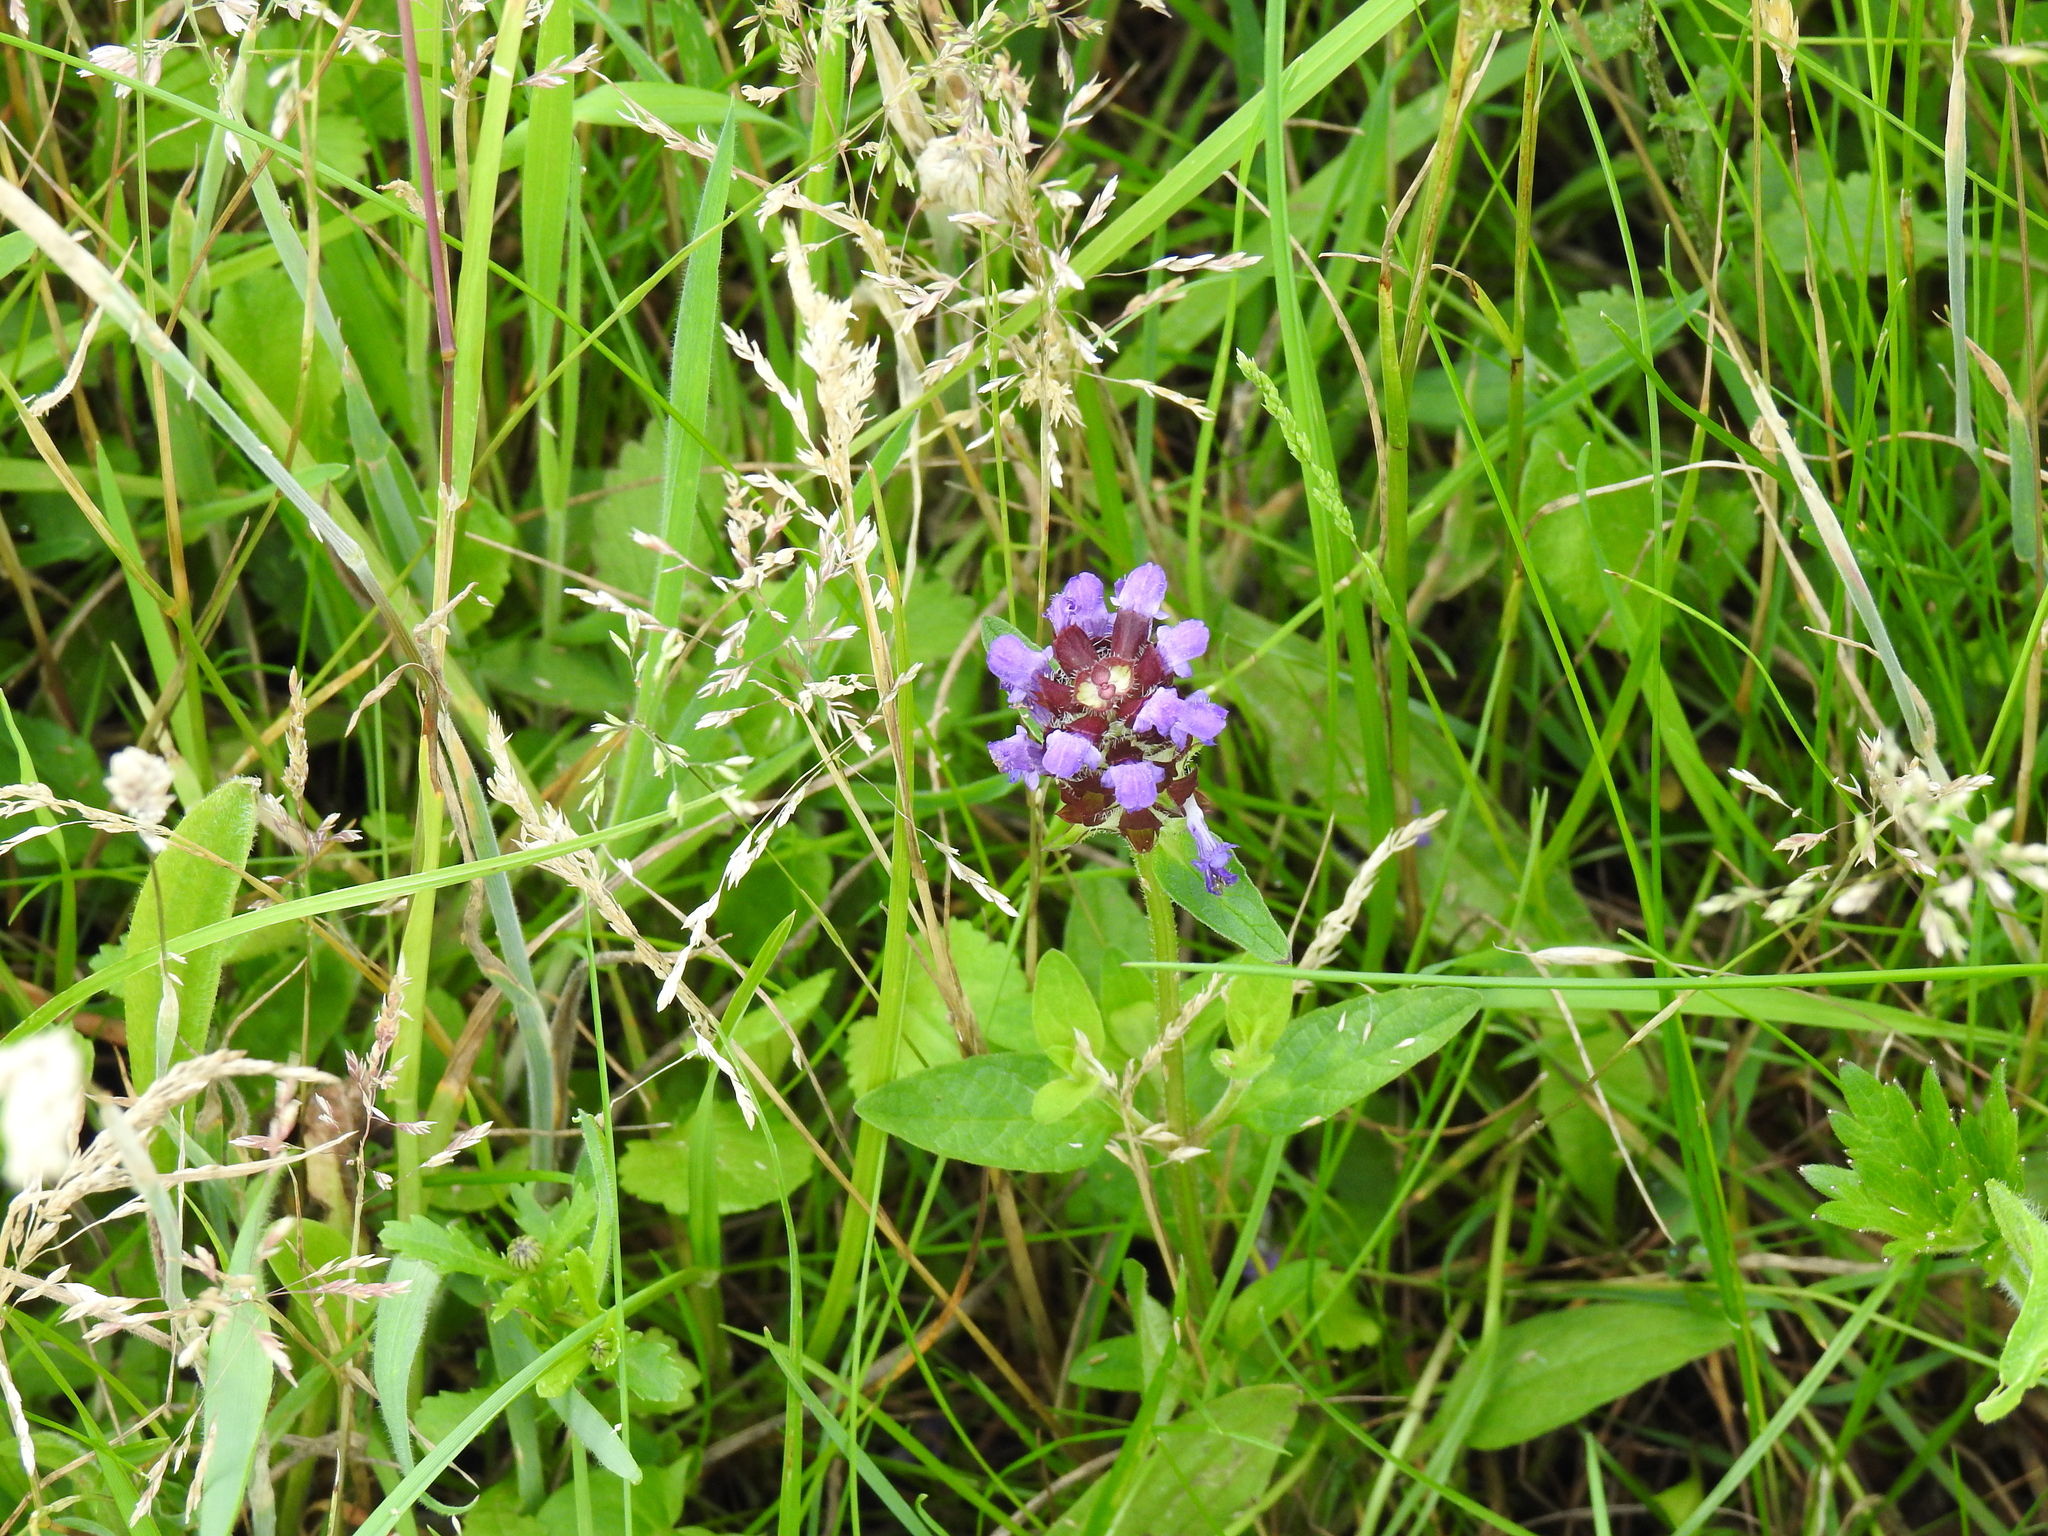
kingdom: Plantae
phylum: Tracheophyta
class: Magnoliopsida
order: Lamiales
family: Lamiaceae
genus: Prunella
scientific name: Prunella vulgaris
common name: Heal-all
